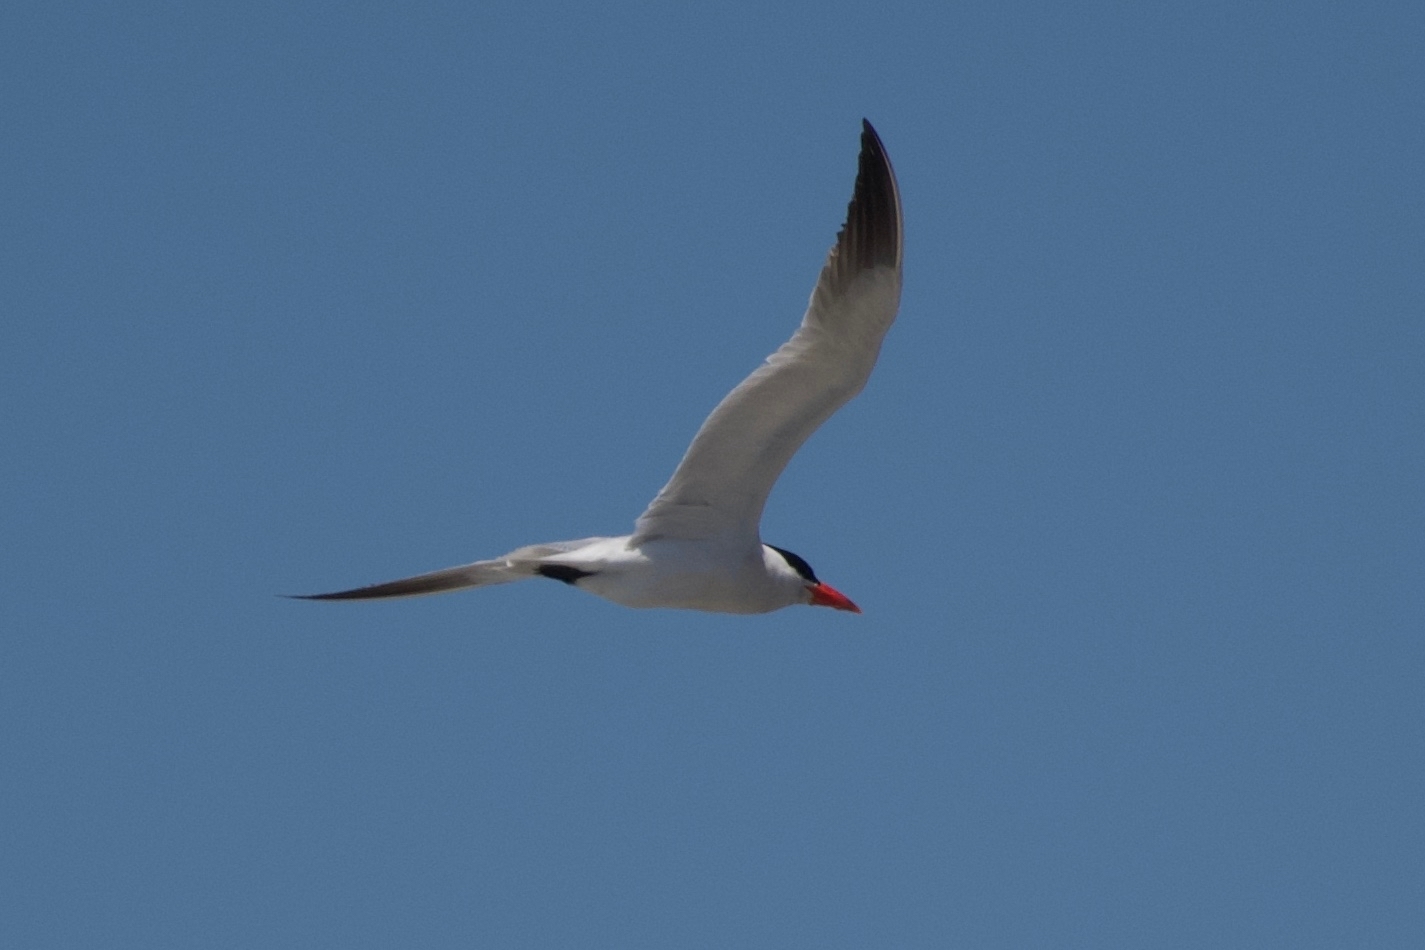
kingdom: Animalia
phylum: Chordata
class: Aves
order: Charadriiformes
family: Laridae
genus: Hydroprogne
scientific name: Hydroprogne caspia
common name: Caspian tern
